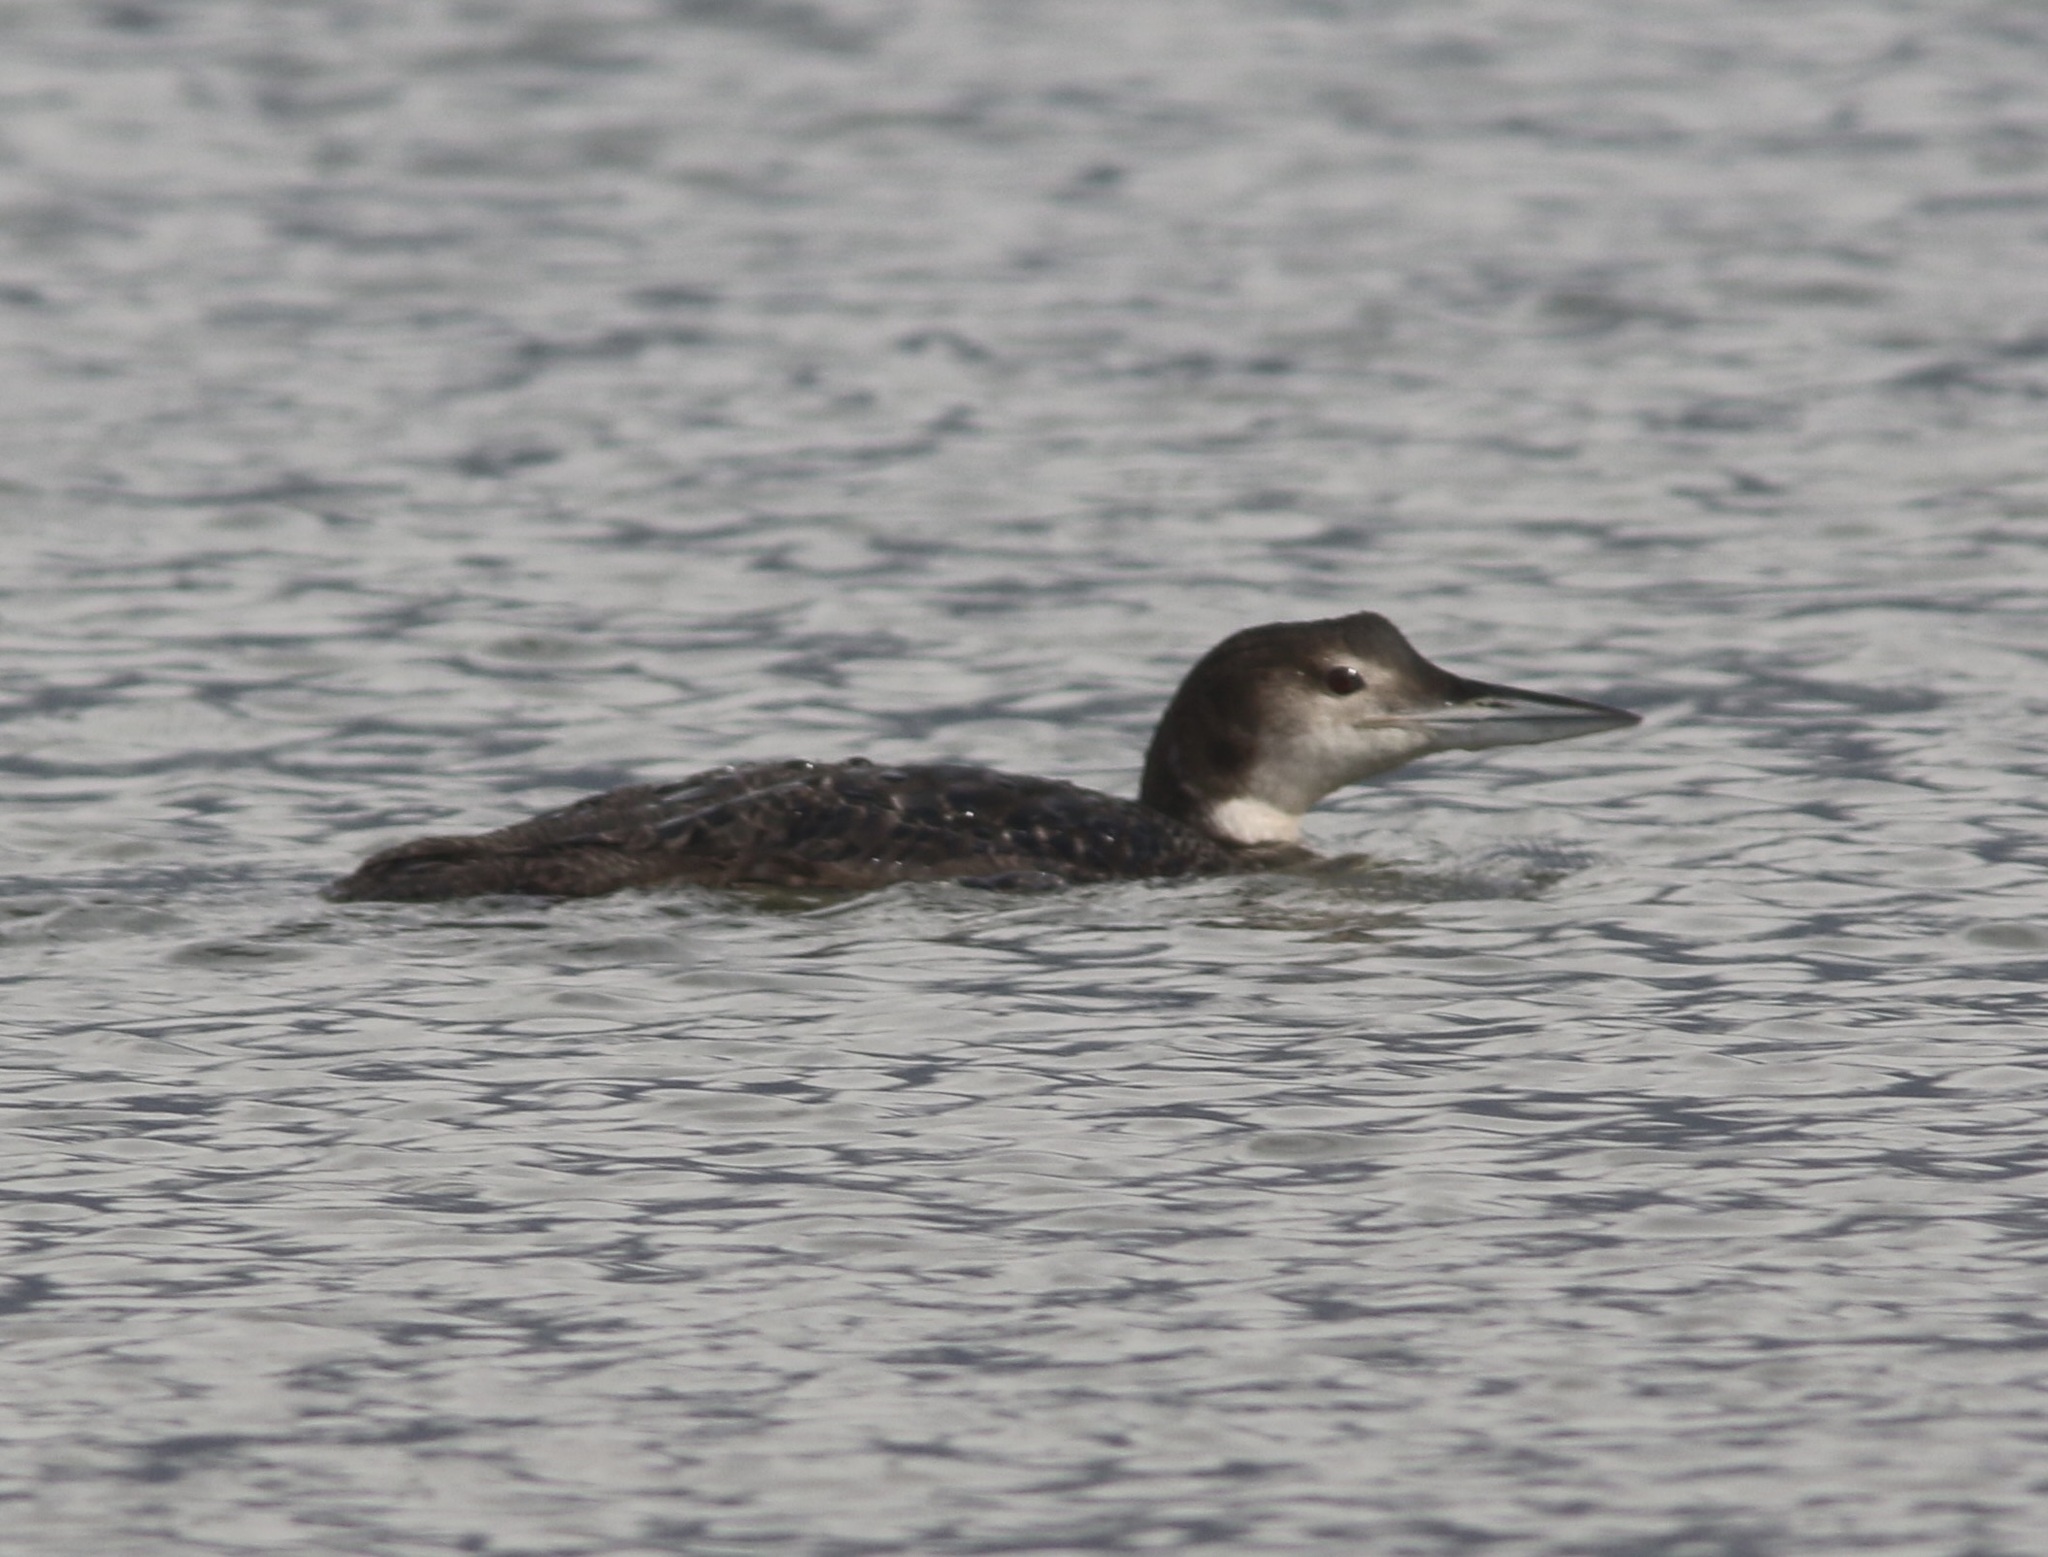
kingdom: Animalia
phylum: Chordata
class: Aves
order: Gaviiformes
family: Gaviidae
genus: Gavia
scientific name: Gavia immer
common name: Common loon
